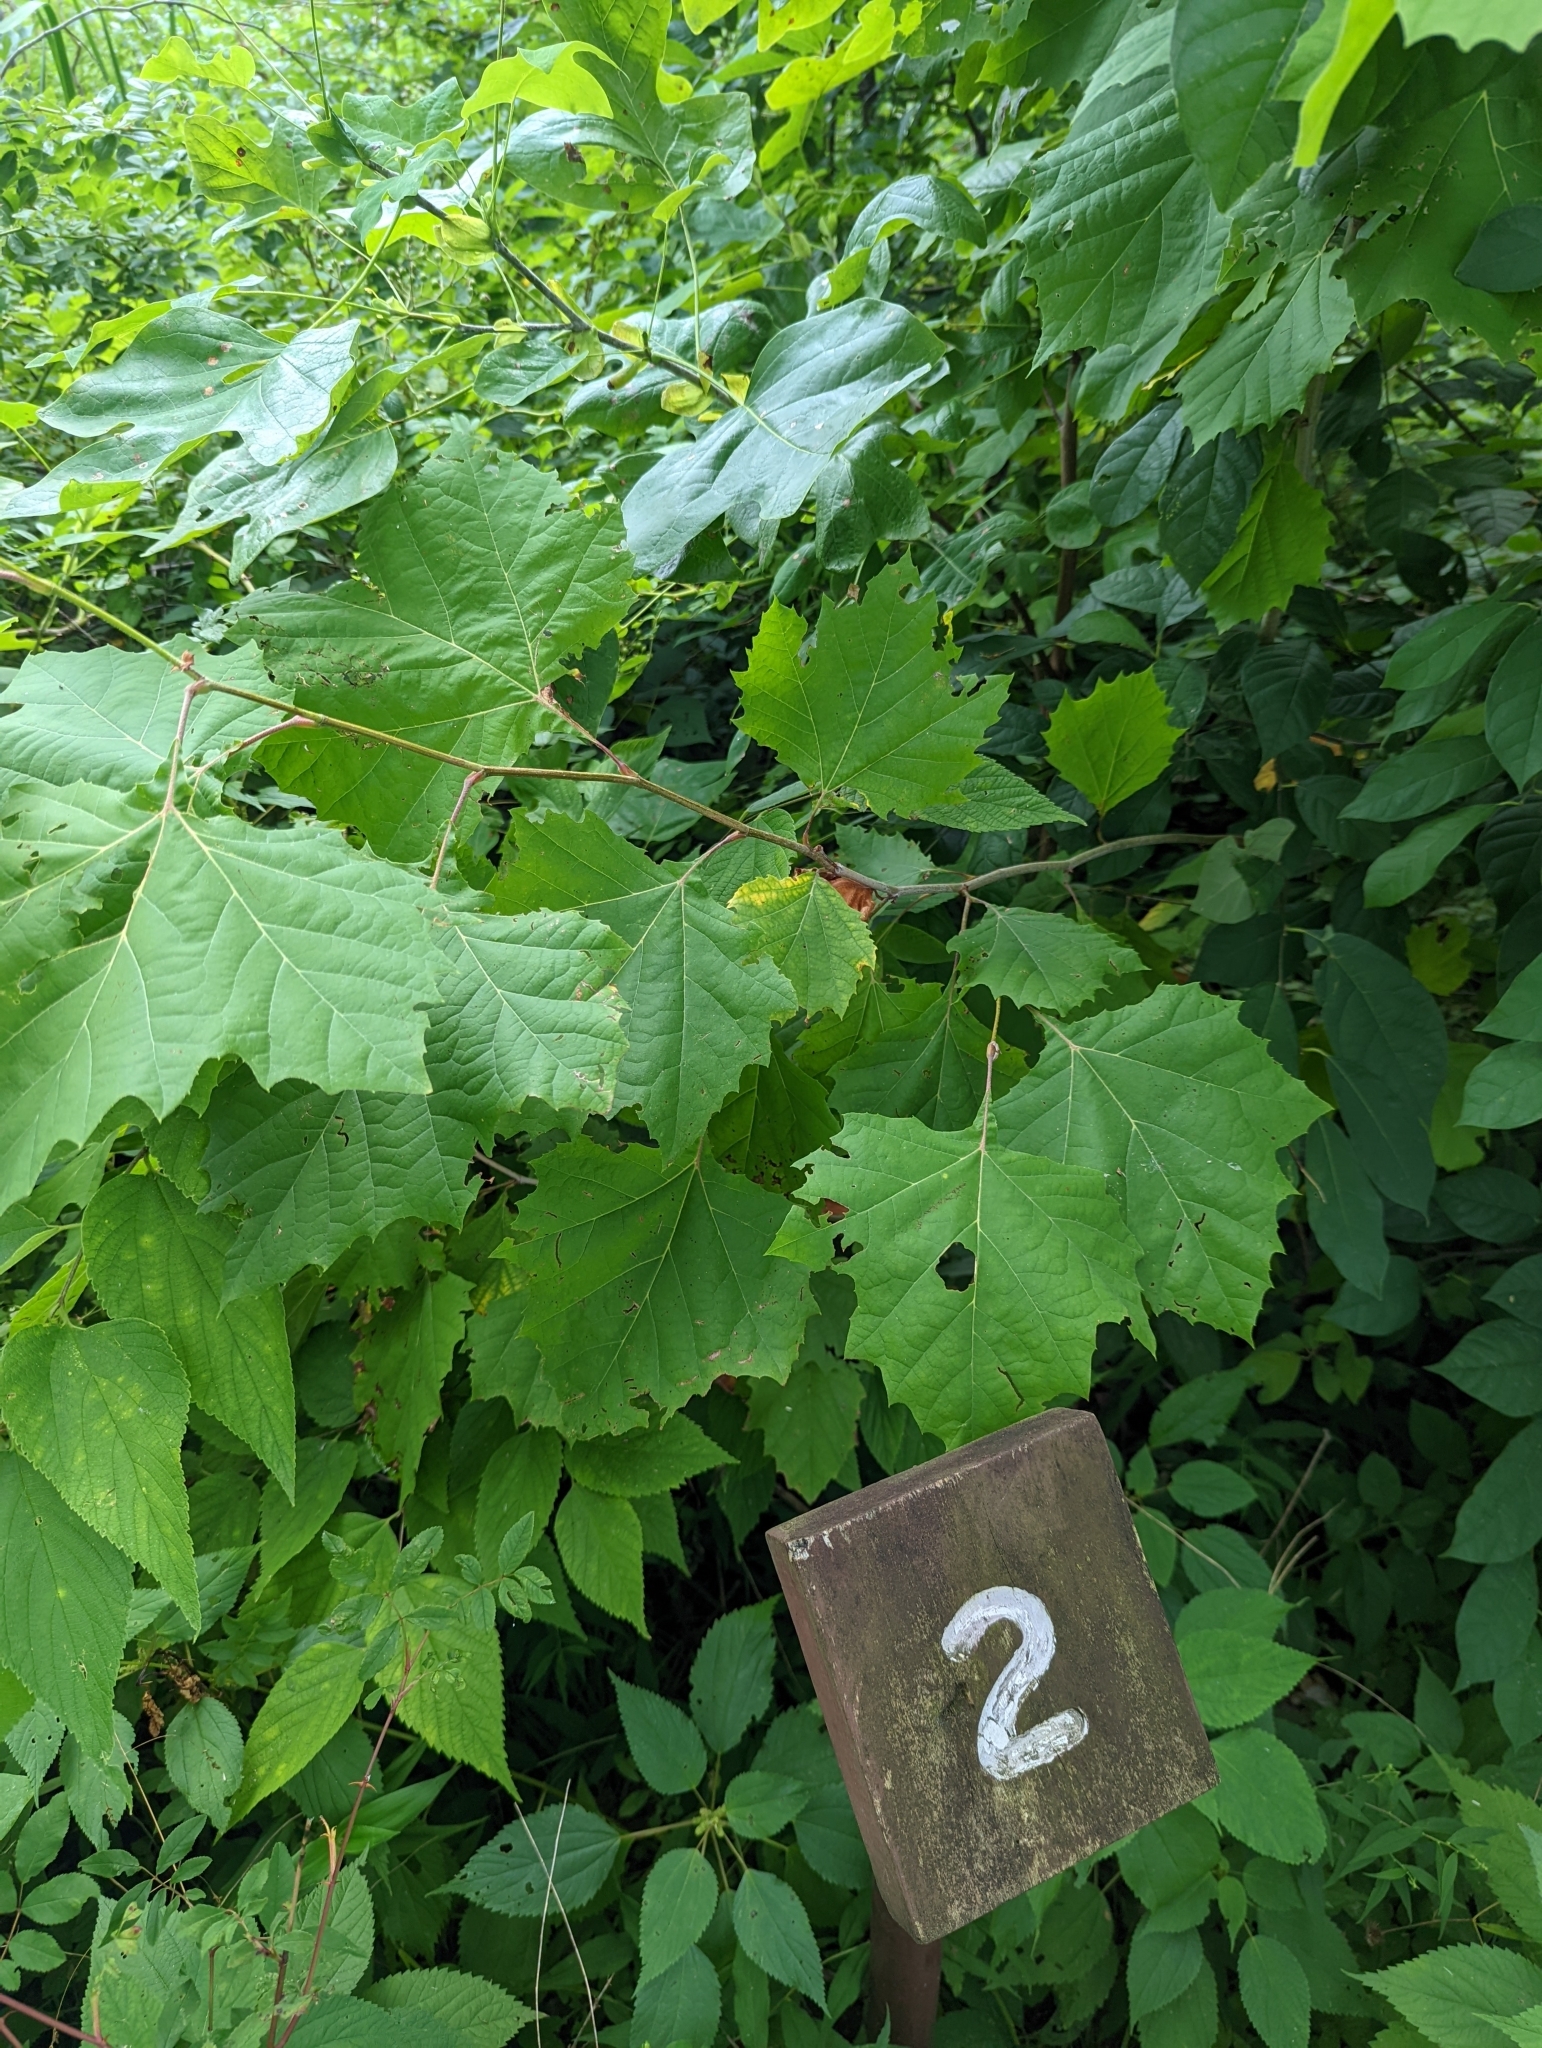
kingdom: Plantae
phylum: Tracheophyta
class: Magnoliopsida
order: Proteales
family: Platanaceae
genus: Platanus
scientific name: Platanus occidentalis
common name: American sycamore
